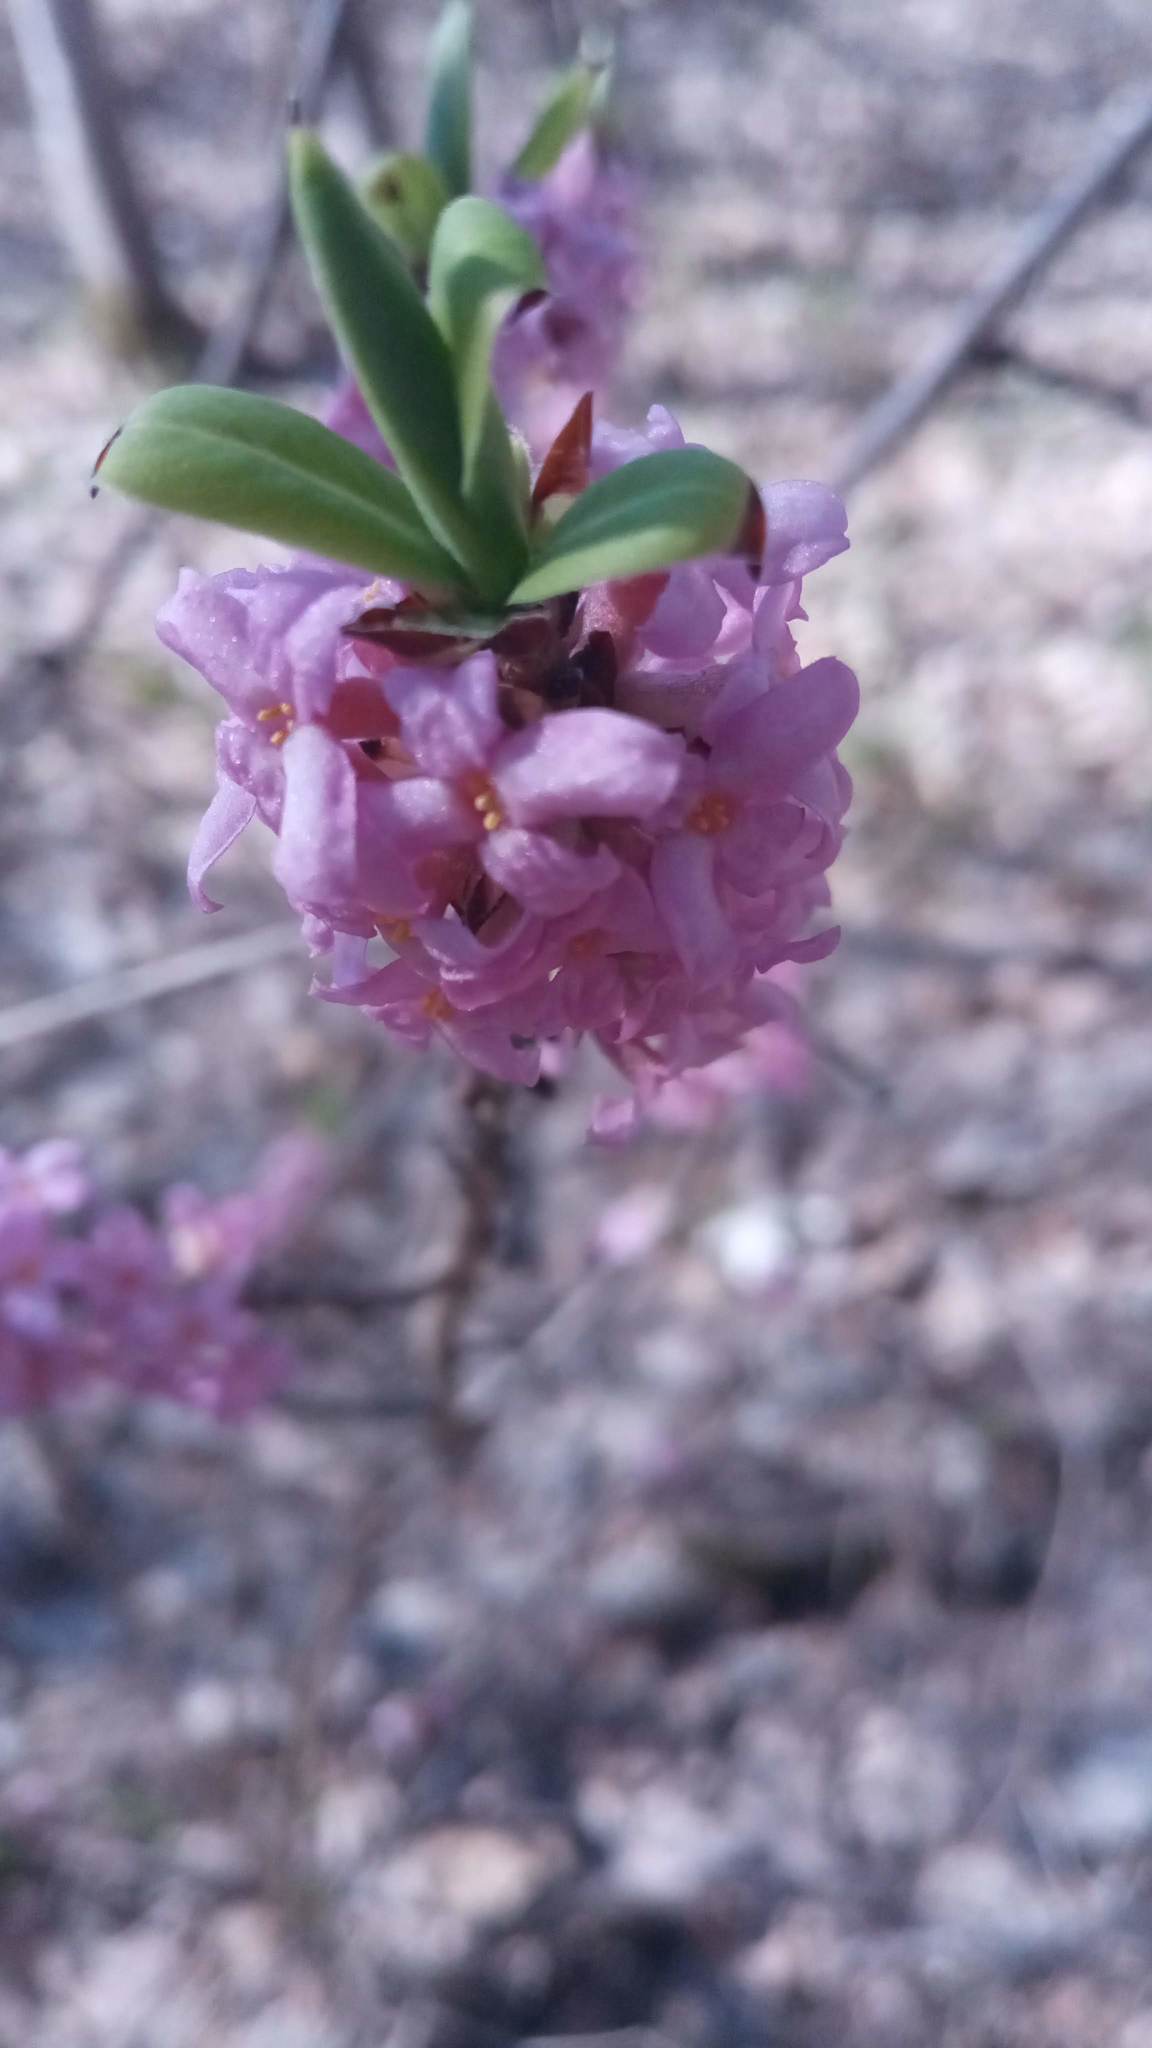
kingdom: Plantae
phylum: Tracheophyta
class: Magnoliopsida
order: Malvales
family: Thymelaeaceae
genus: Daphne
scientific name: Daphne mezereum
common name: Mezereon
